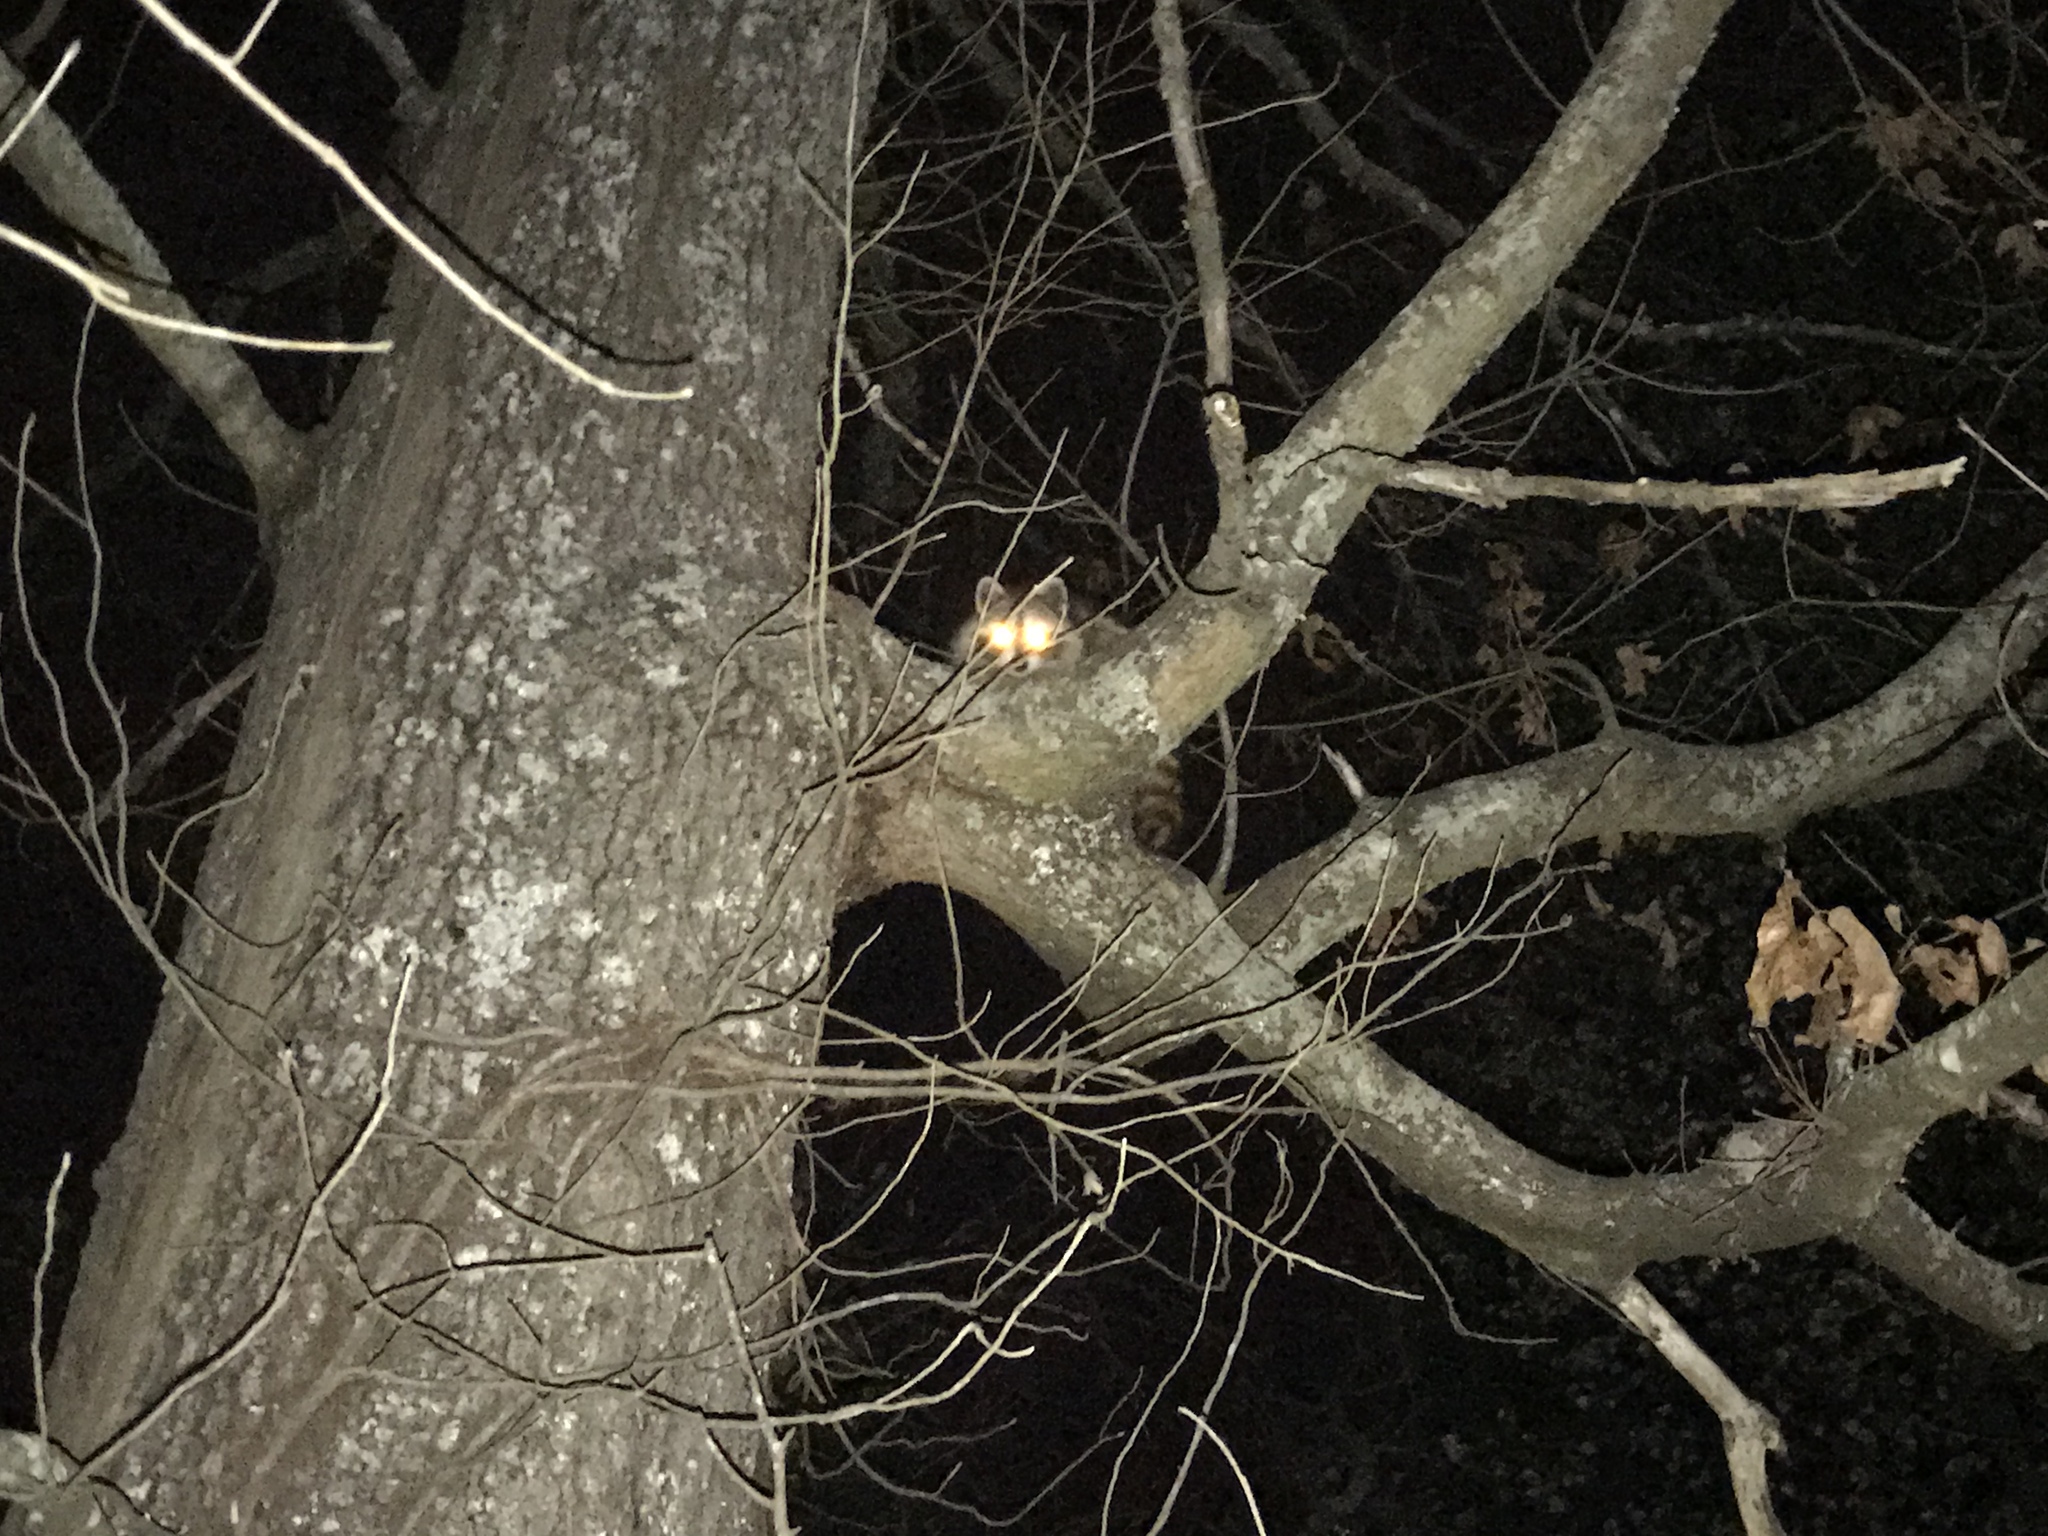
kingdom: Animalia
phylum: Chordata
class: Mammalia
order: Carnivora
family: Procyonidae
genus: Procyon
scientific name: Procyon lotor
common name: Raccoon
